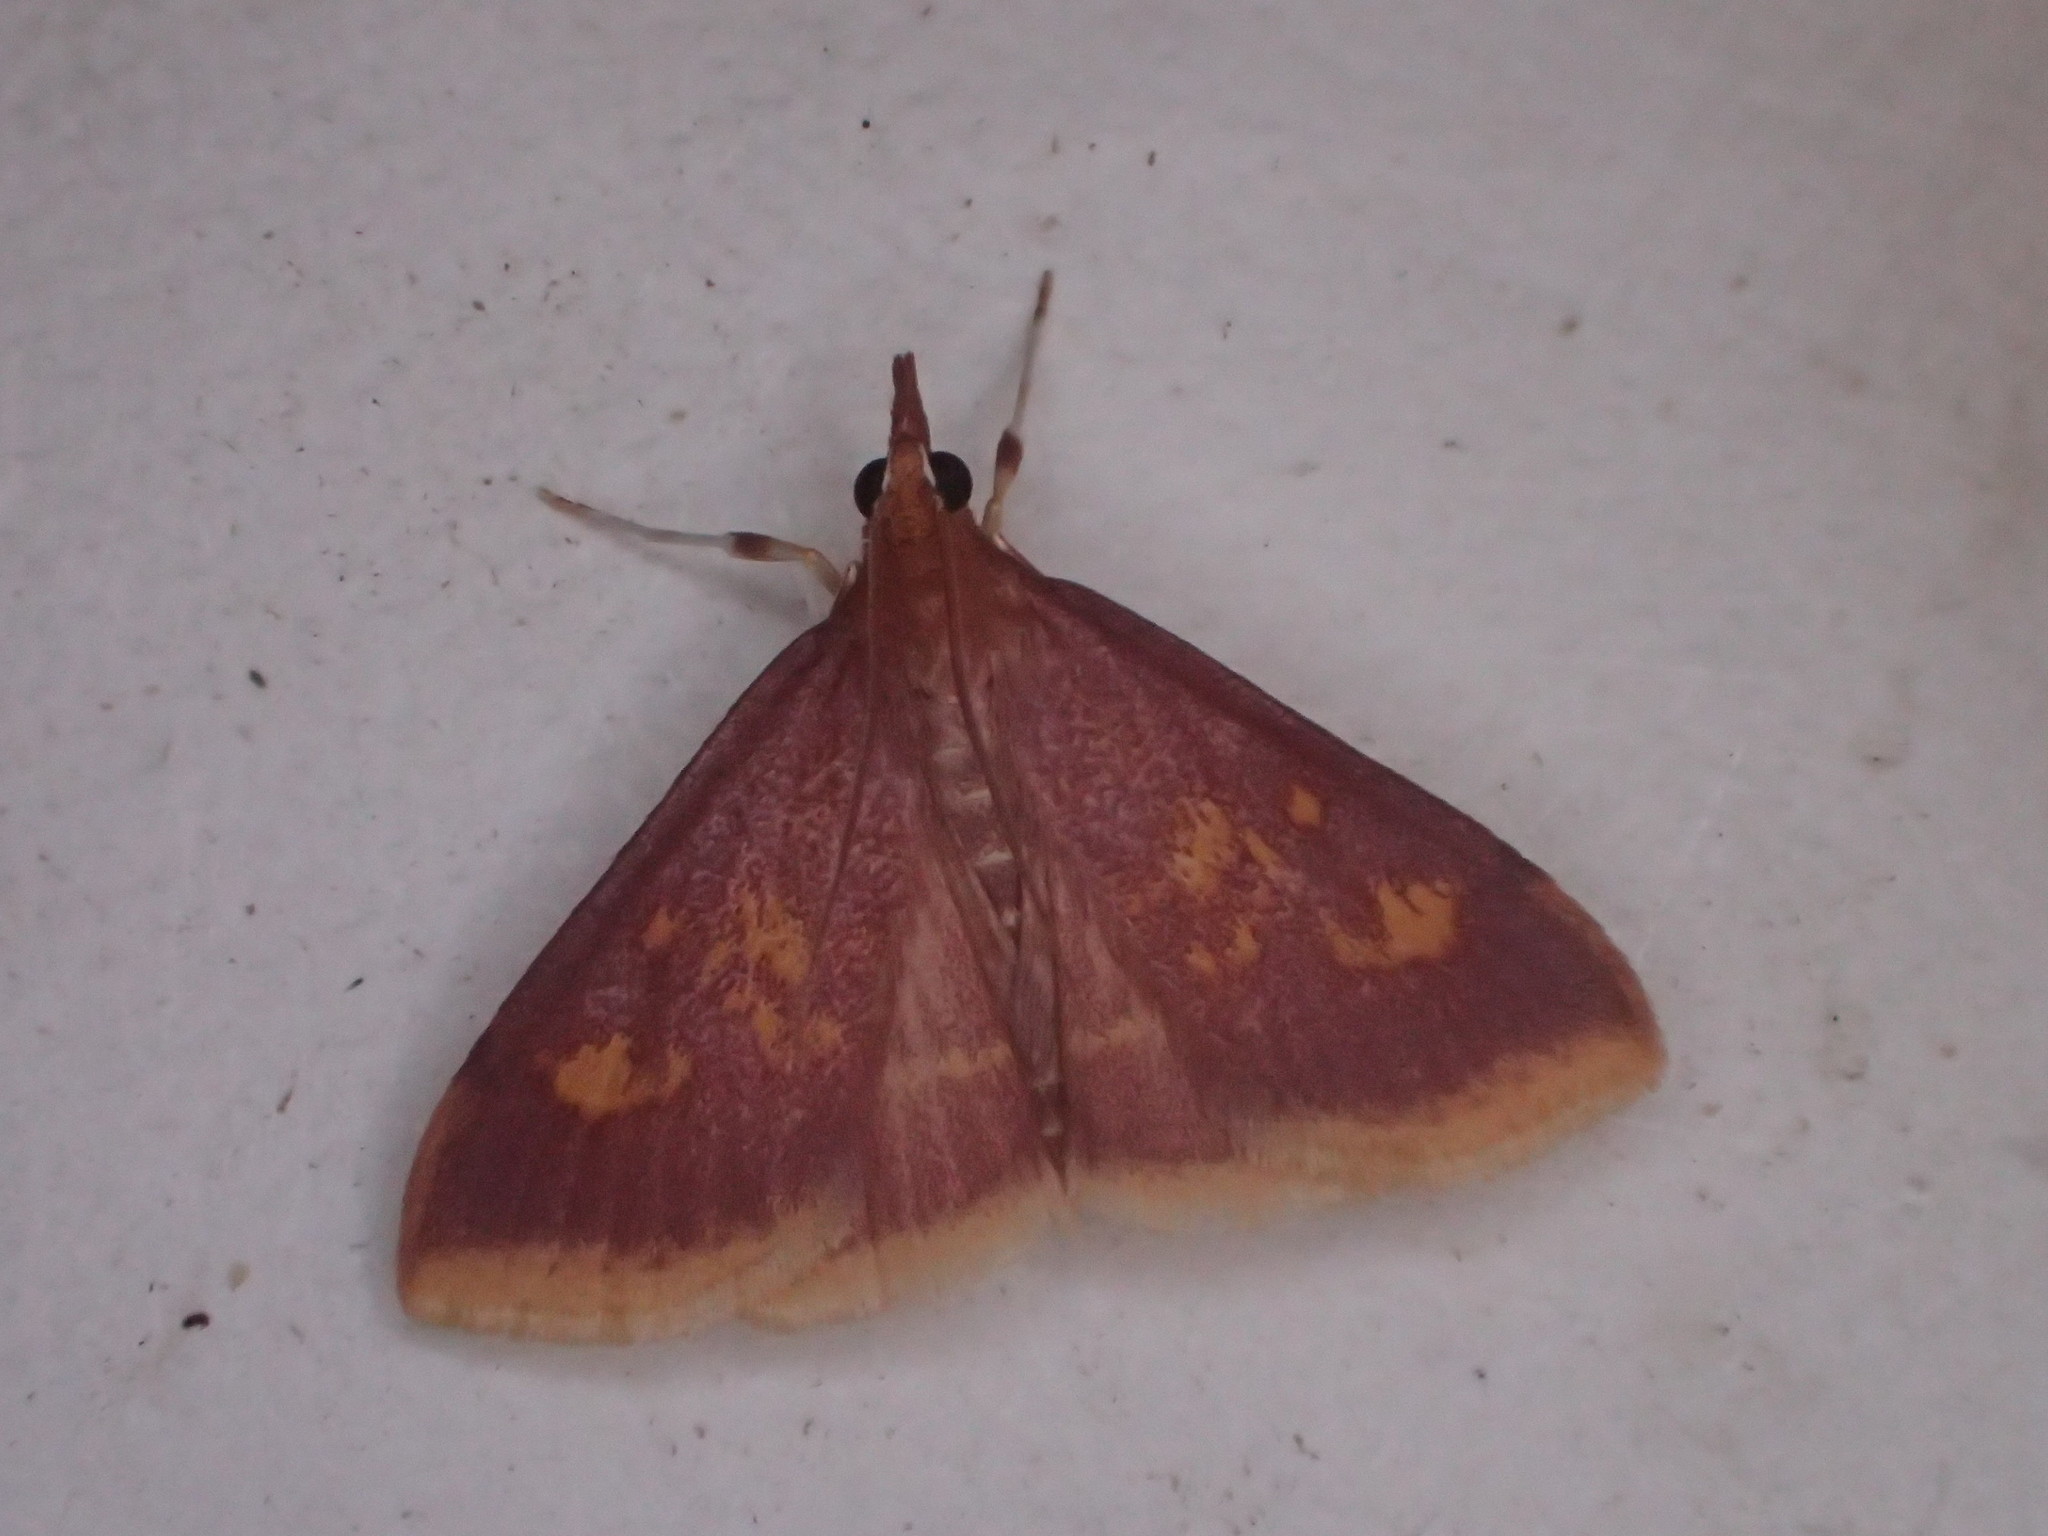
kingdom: Animalia
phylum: Arthropoda
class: Insecta
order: Lepidoptera
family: Crambidae
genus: Pyrausta
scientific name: Pyrausta acrionalis
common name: Mint-loving pyrausta moth
